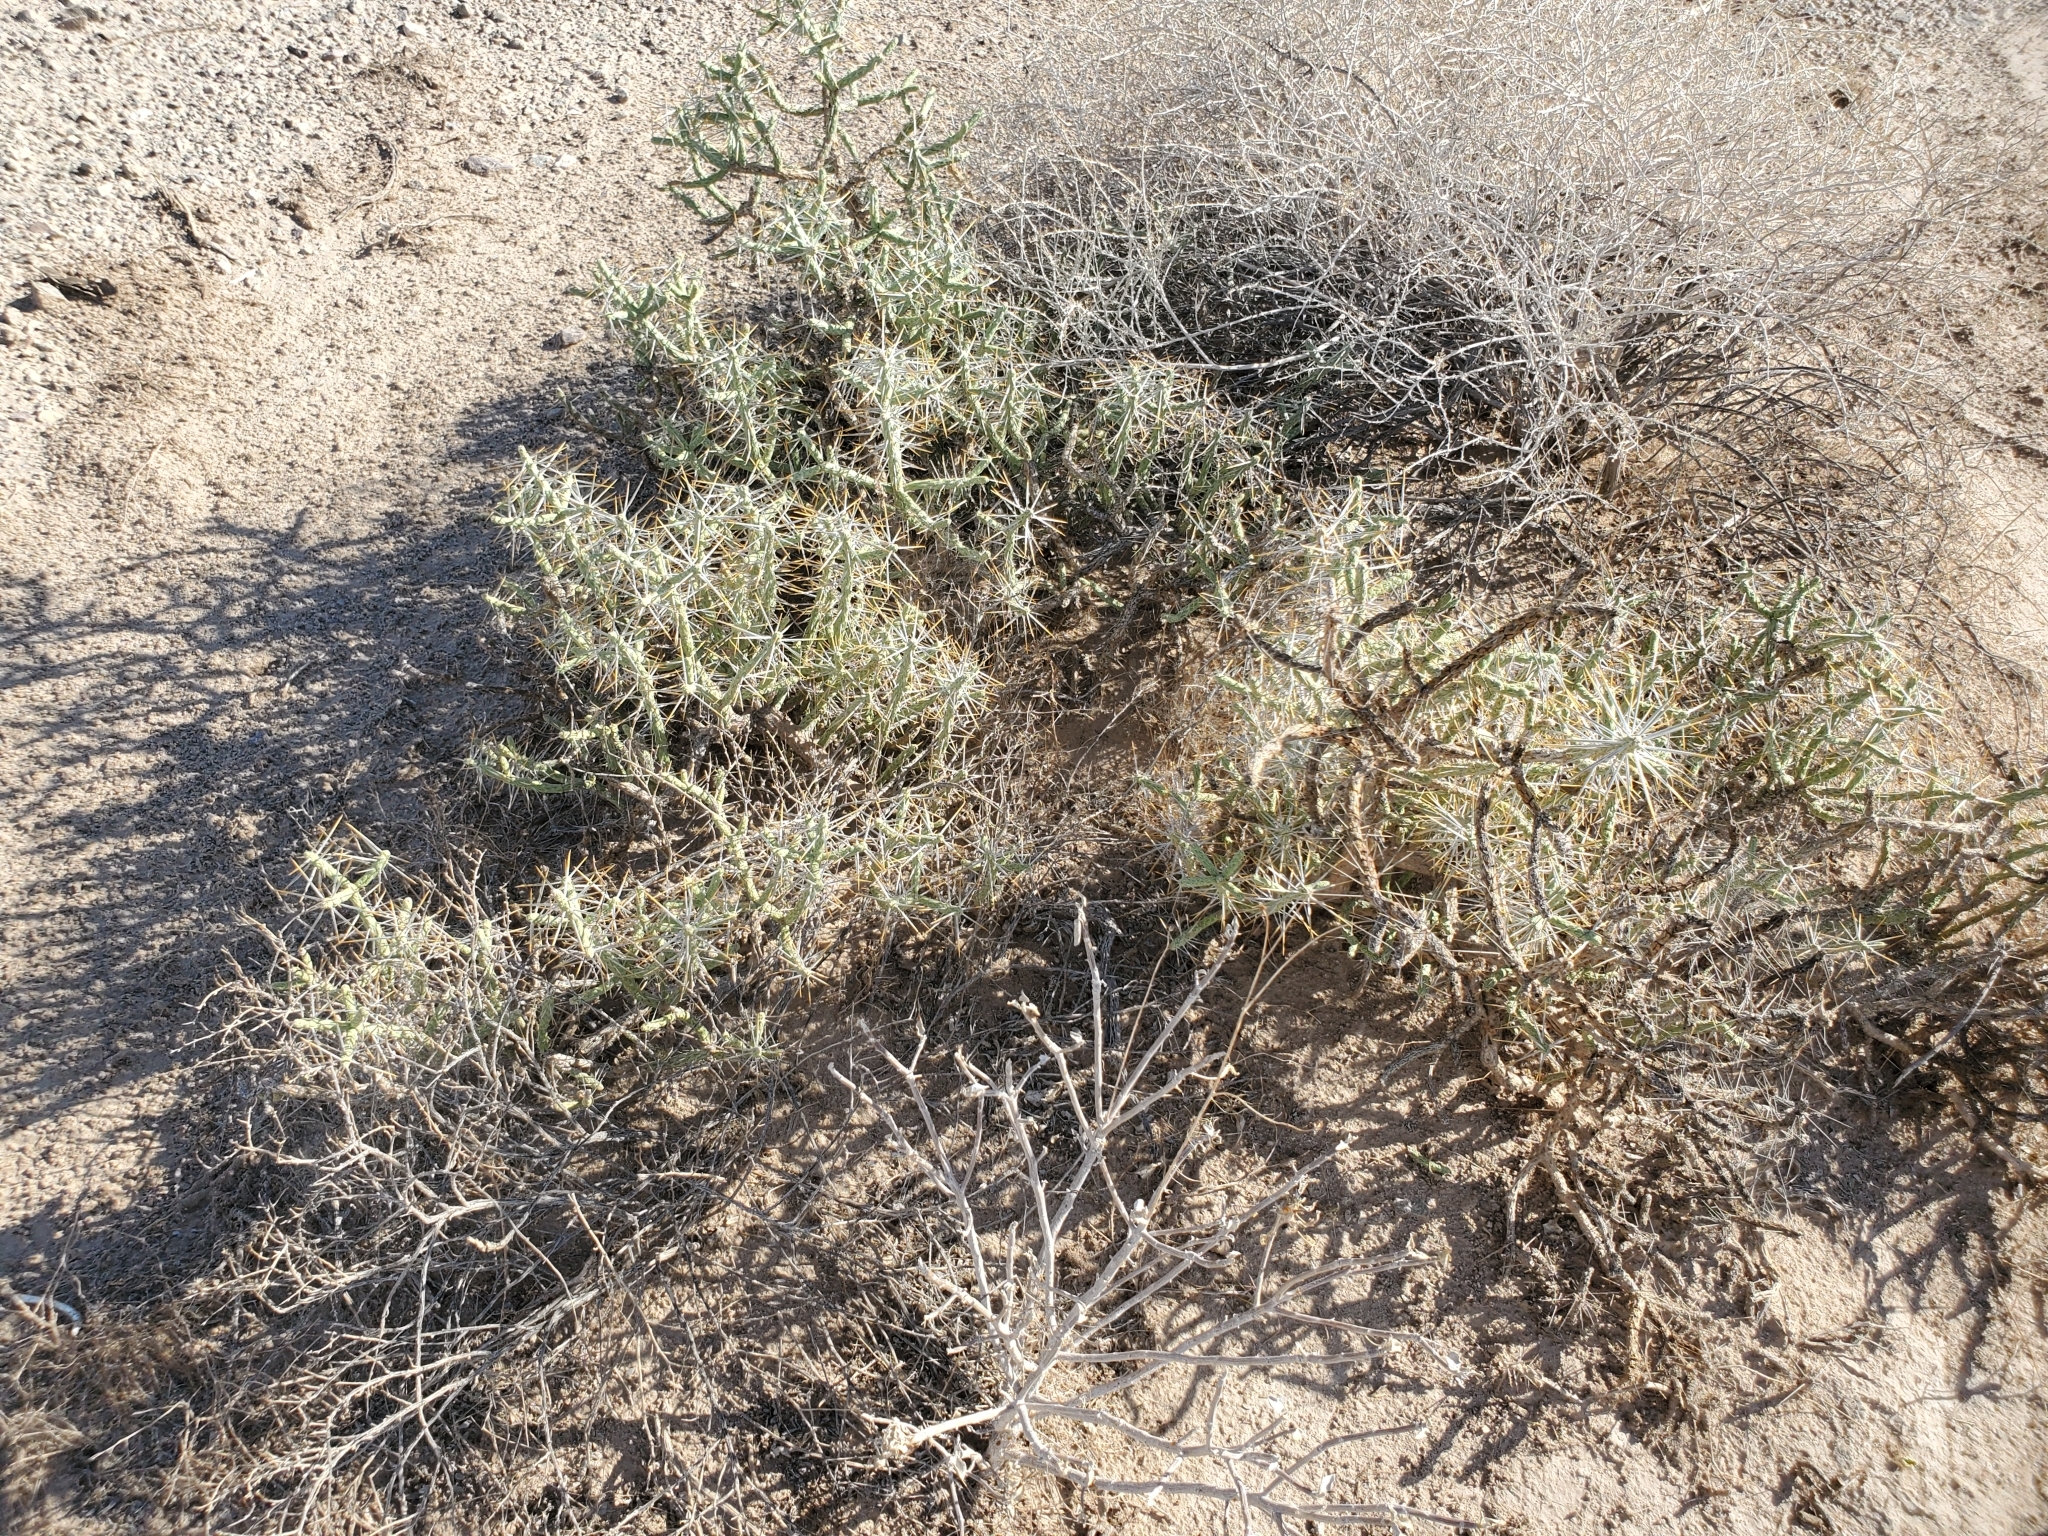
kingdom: Plantae
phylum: Tracheophyta
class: Magnoliopsida
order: Caryophyllales
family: Cactaceae
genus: Cylindropuntia
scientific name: Cylindropuntia ramosissima
